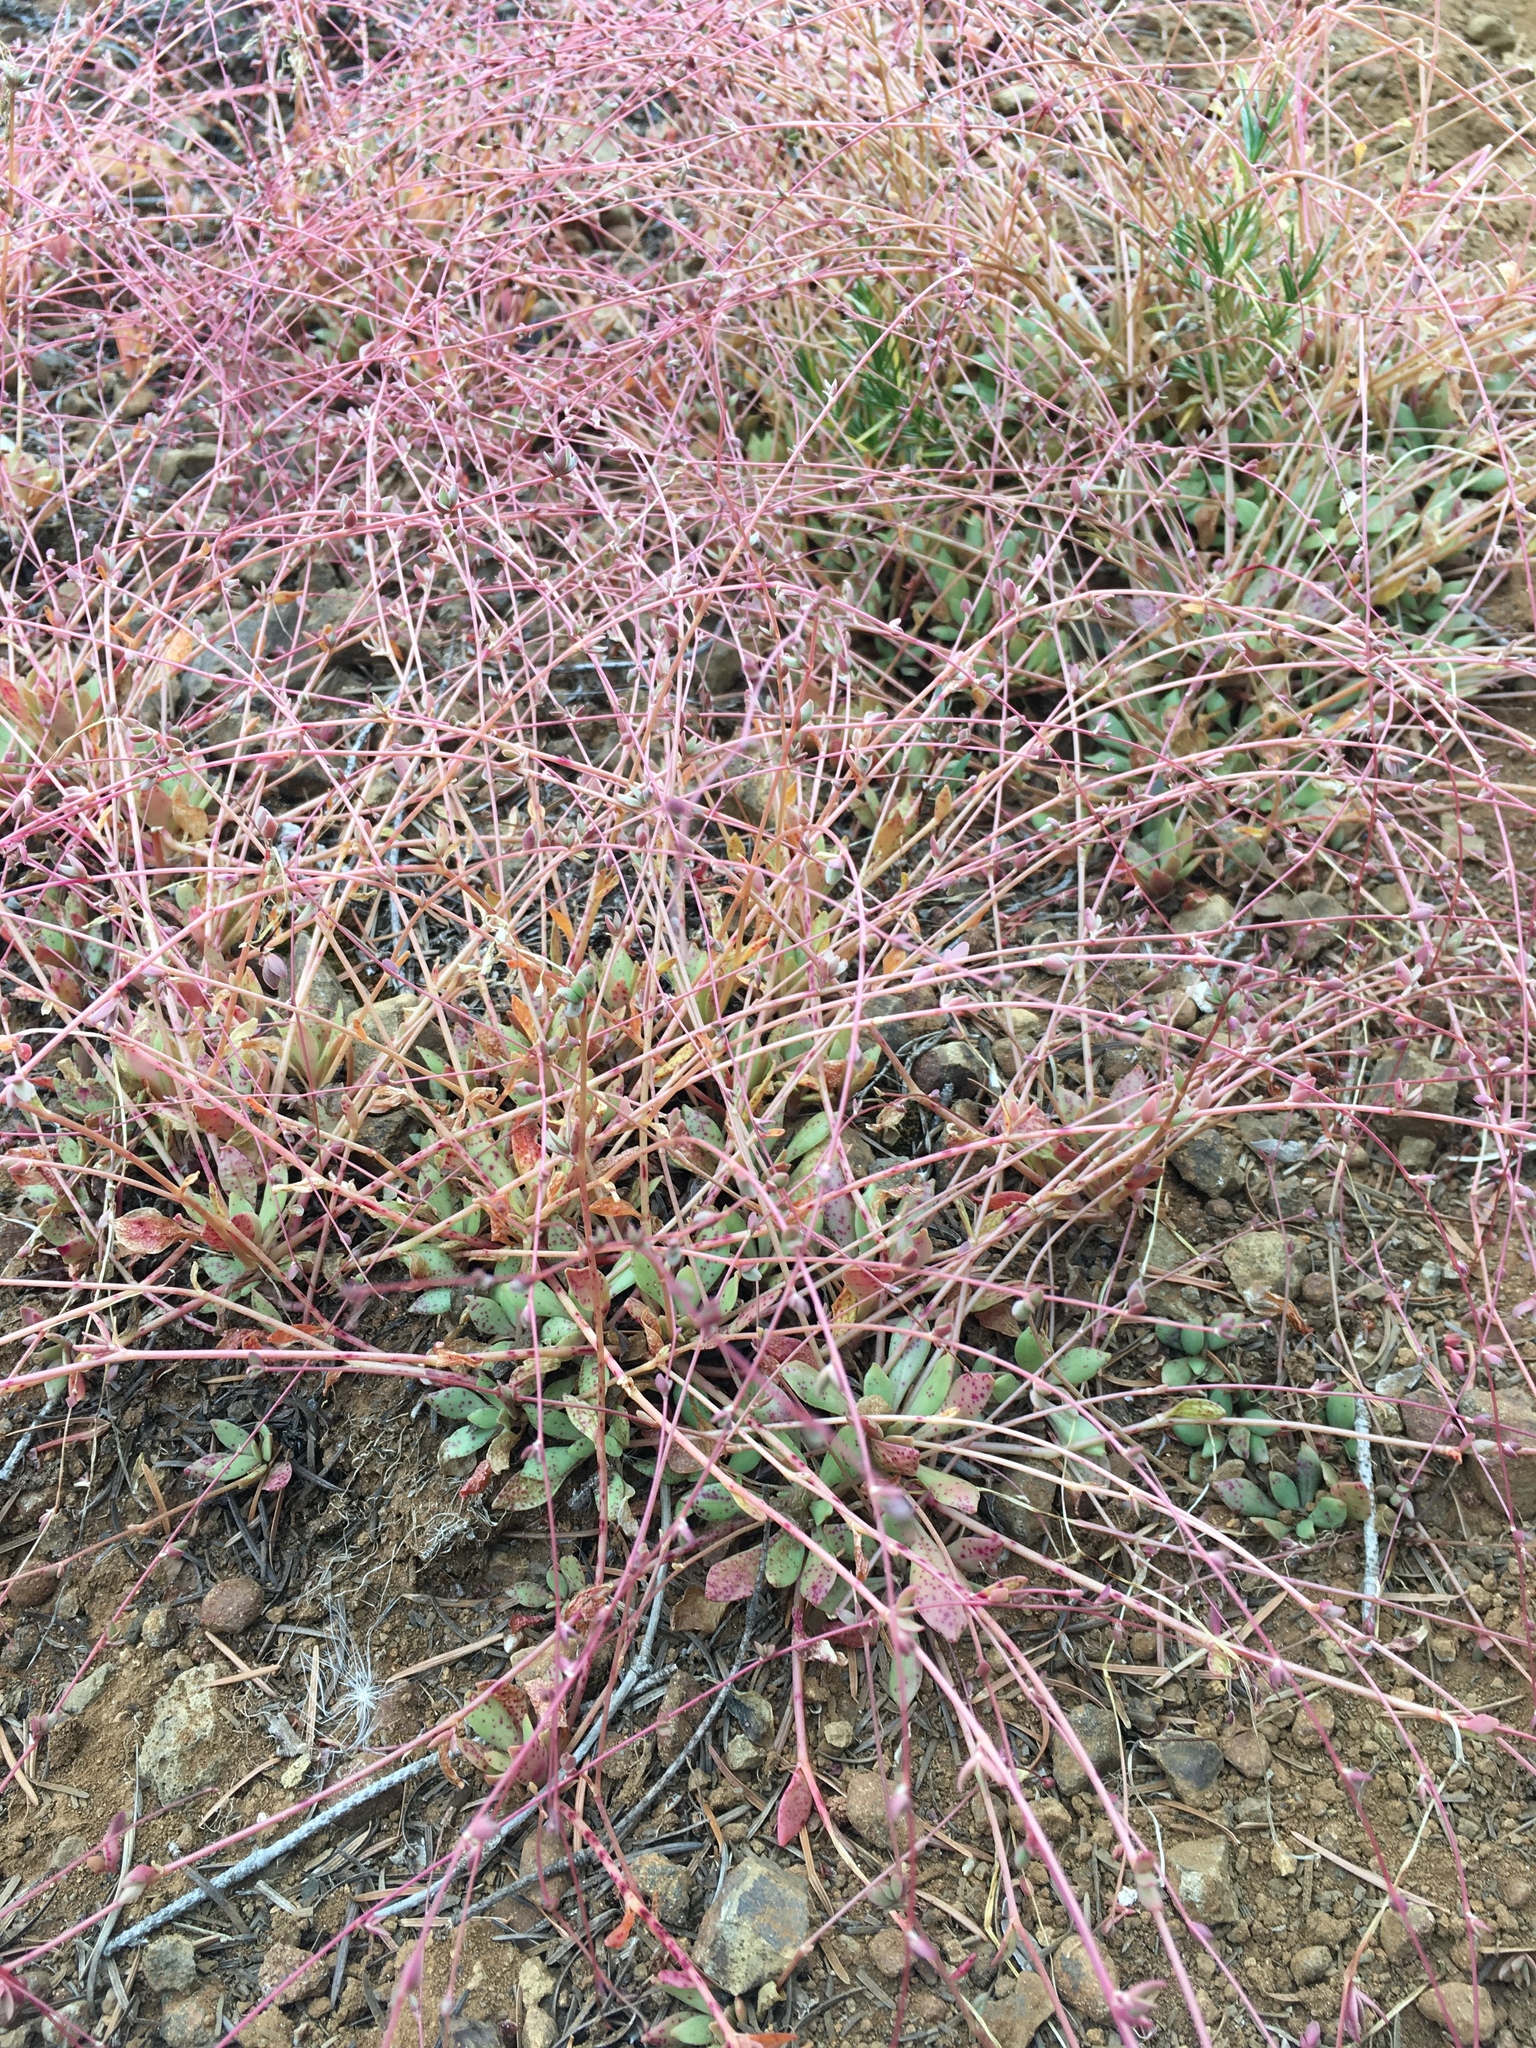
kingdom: Plantae
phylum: Tracheophyta
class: Magnoliopsida
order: Caryophyllales
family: Montiaceae
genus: Montia
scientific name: Montia parvifolia
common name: Small-leaved blinks
